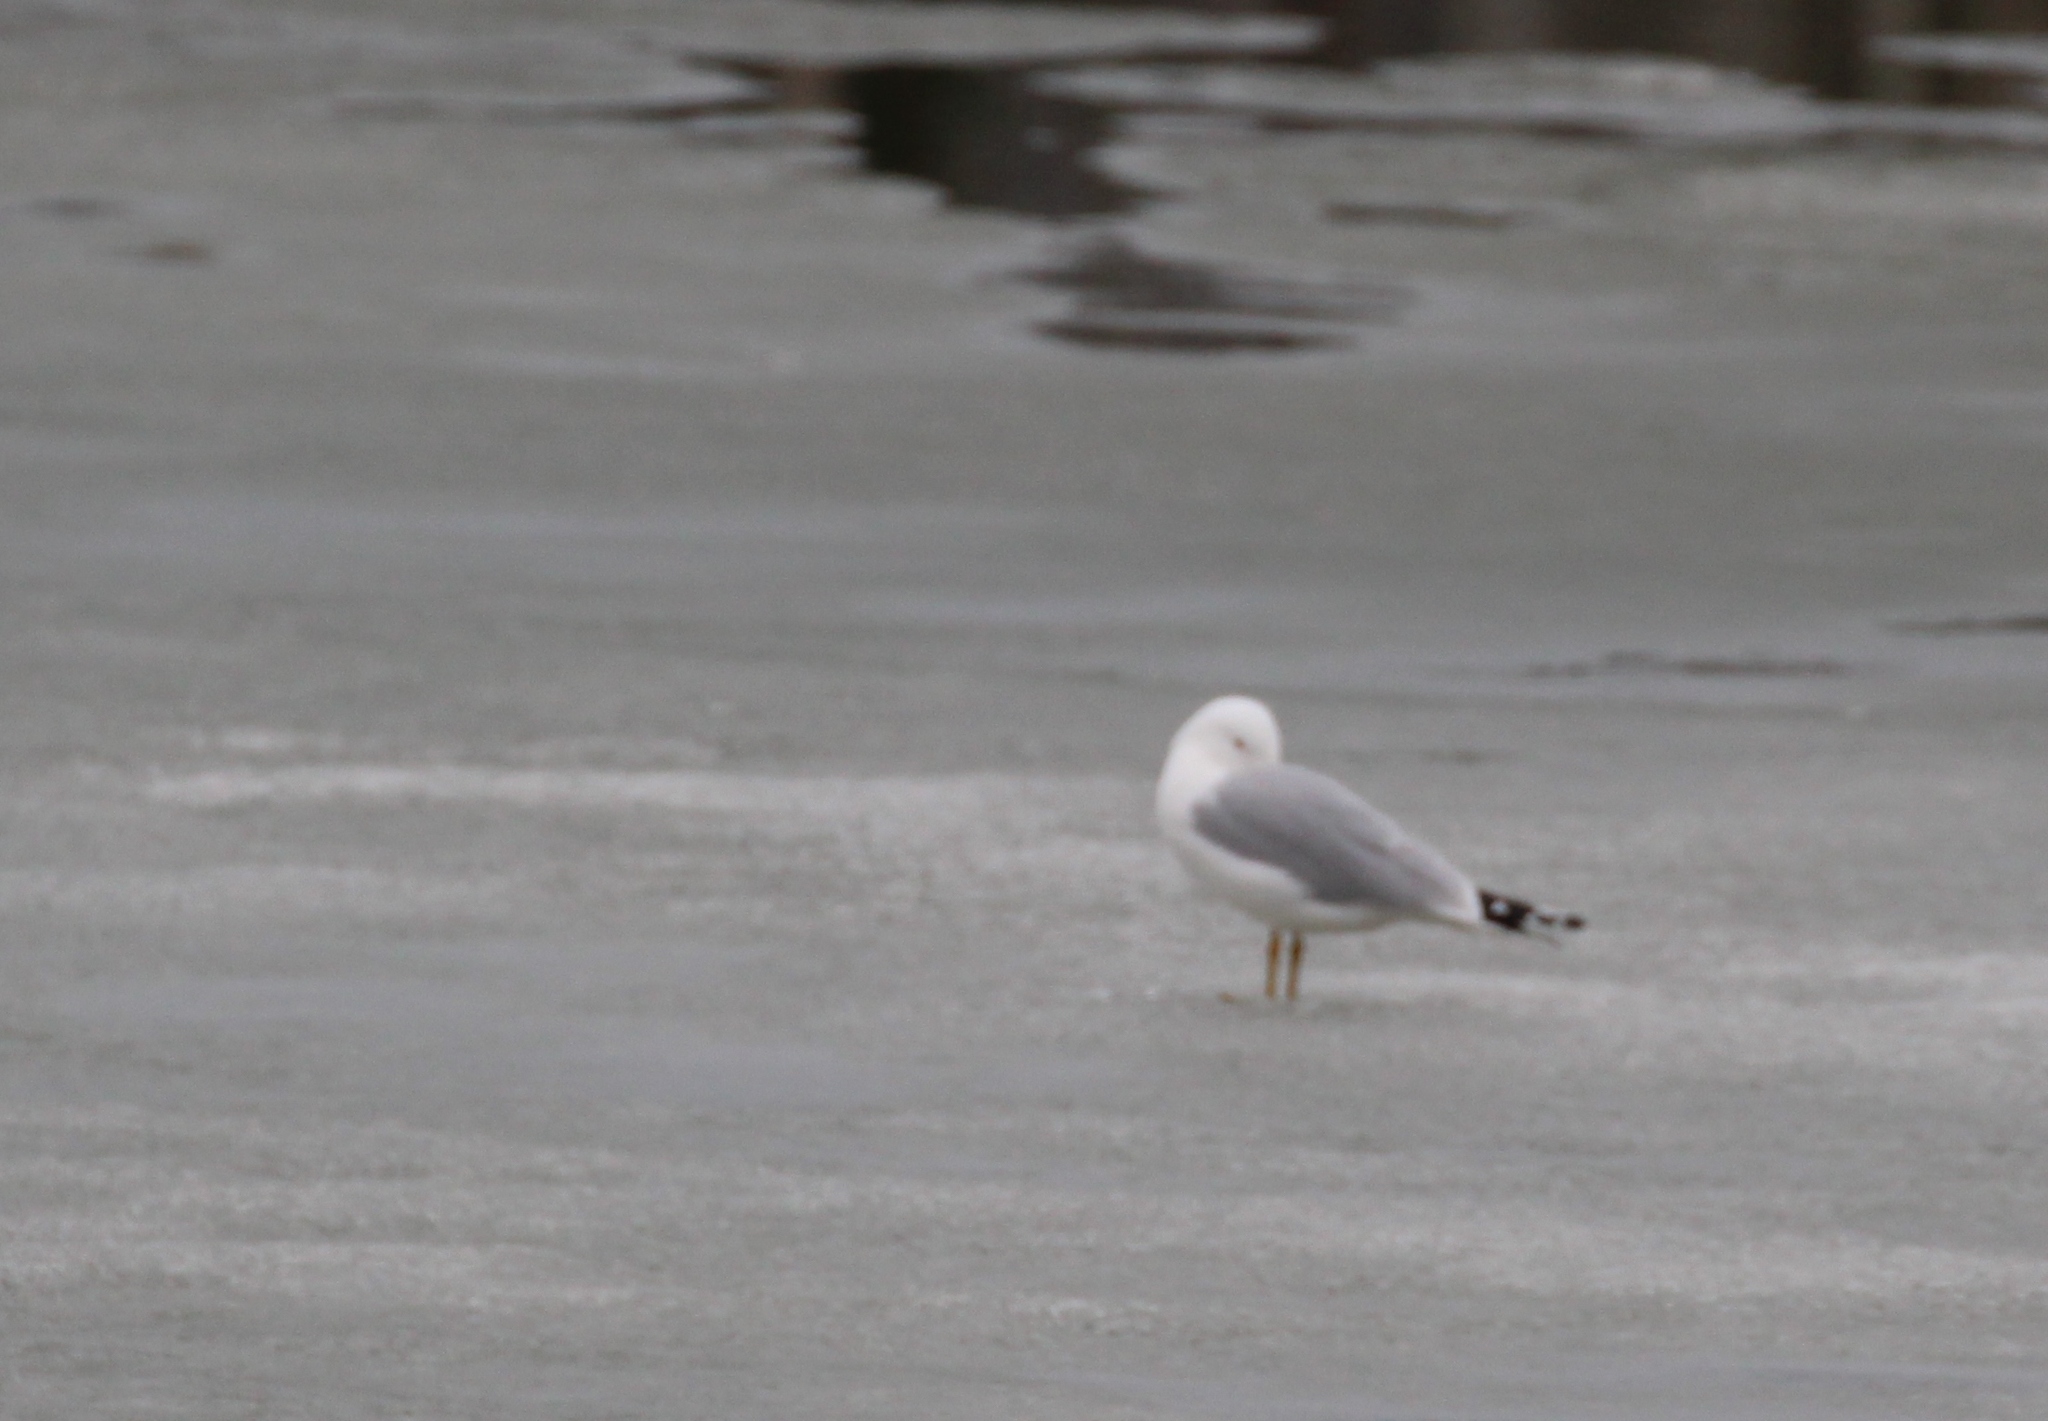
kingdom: Animalia
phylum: Chordata
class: Aves
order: Charadriiformes
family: Laridae
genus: Larus
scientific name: Larus delawarensis
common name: Ring-billed gull
